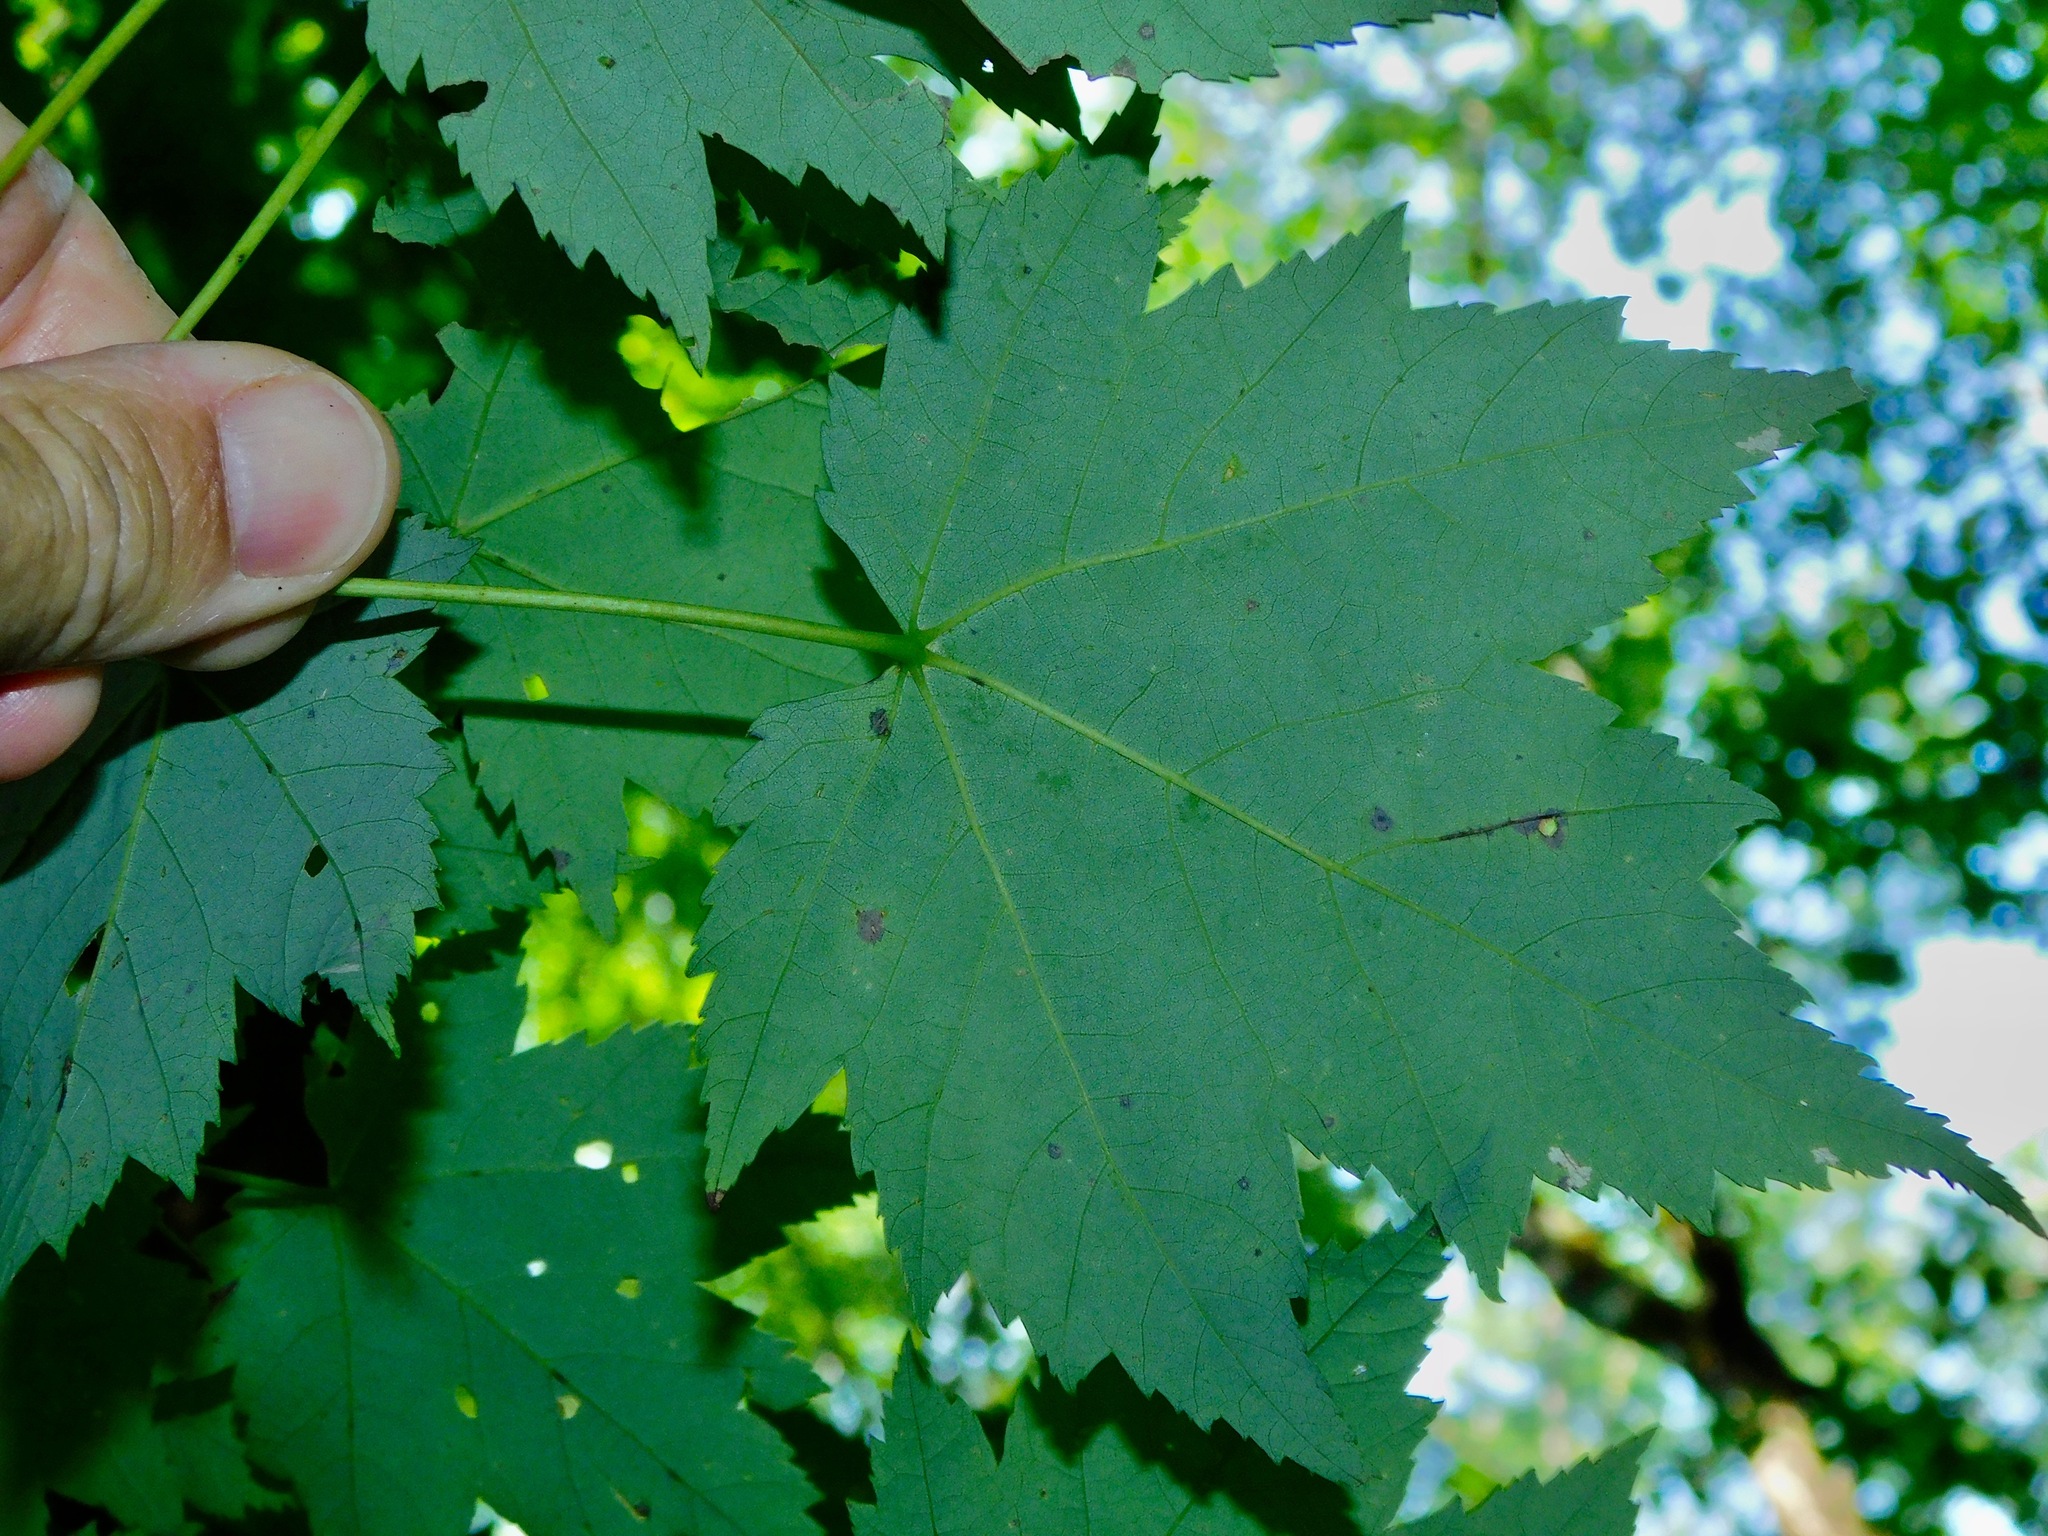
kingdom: Plantae
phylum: Tracheophyta
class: Magnoliopsida
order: Sapindales
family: Sapindaceae
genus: Acer
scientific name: Acer freemanii
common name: Freeman maple
